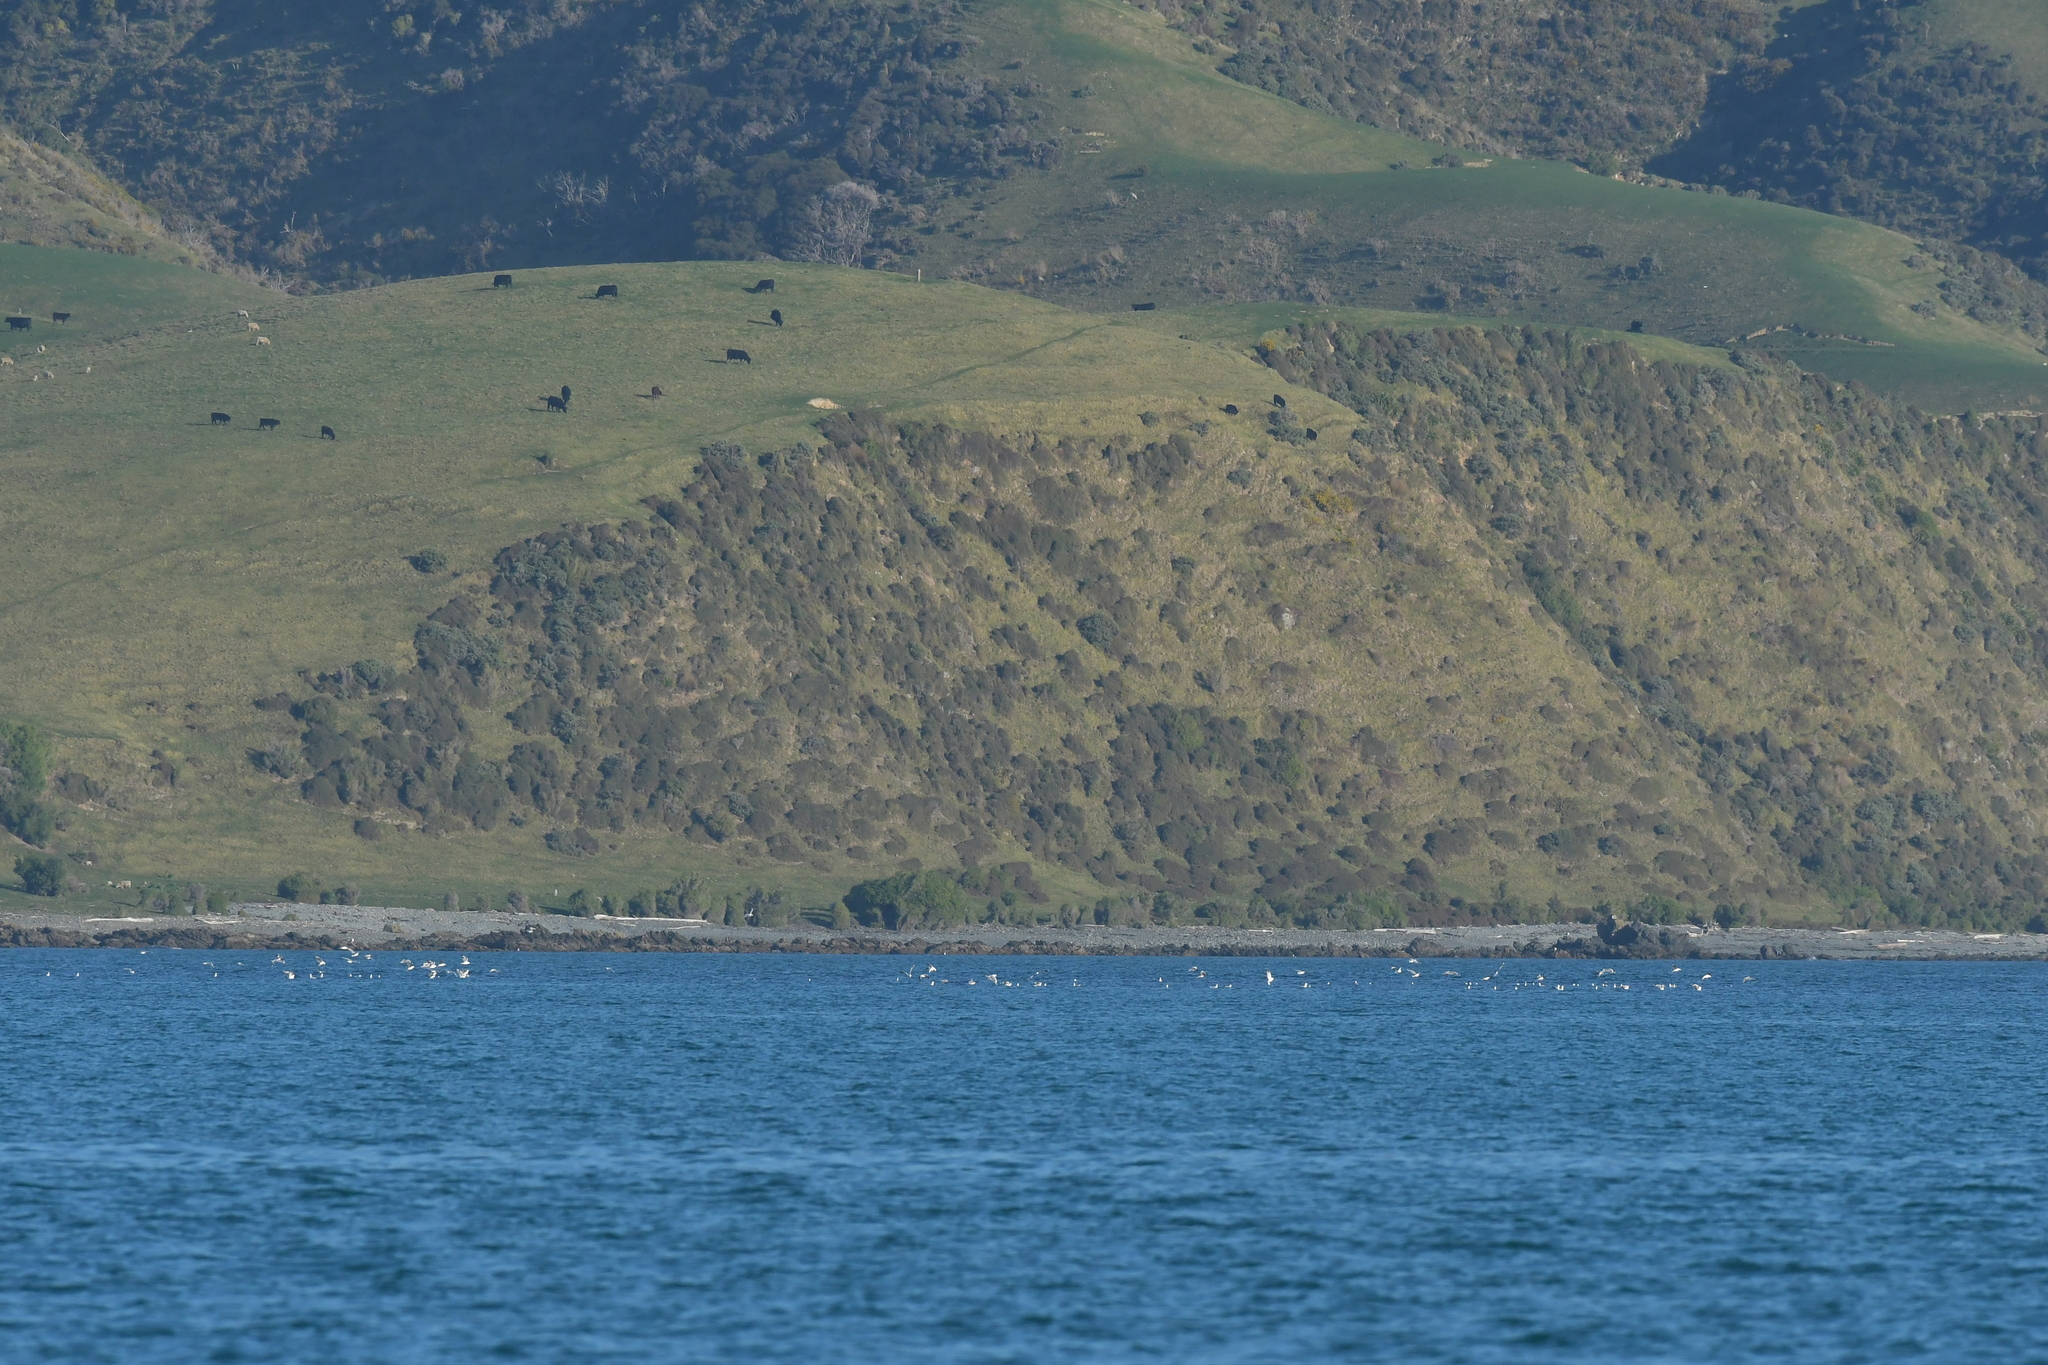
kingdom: Animalia
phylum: Chordata
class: Aves
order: Charadriiformes
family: Laridae
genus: Chroicocephalus
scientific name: Chroicocephalus novaehollandiae
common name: Silver gull
